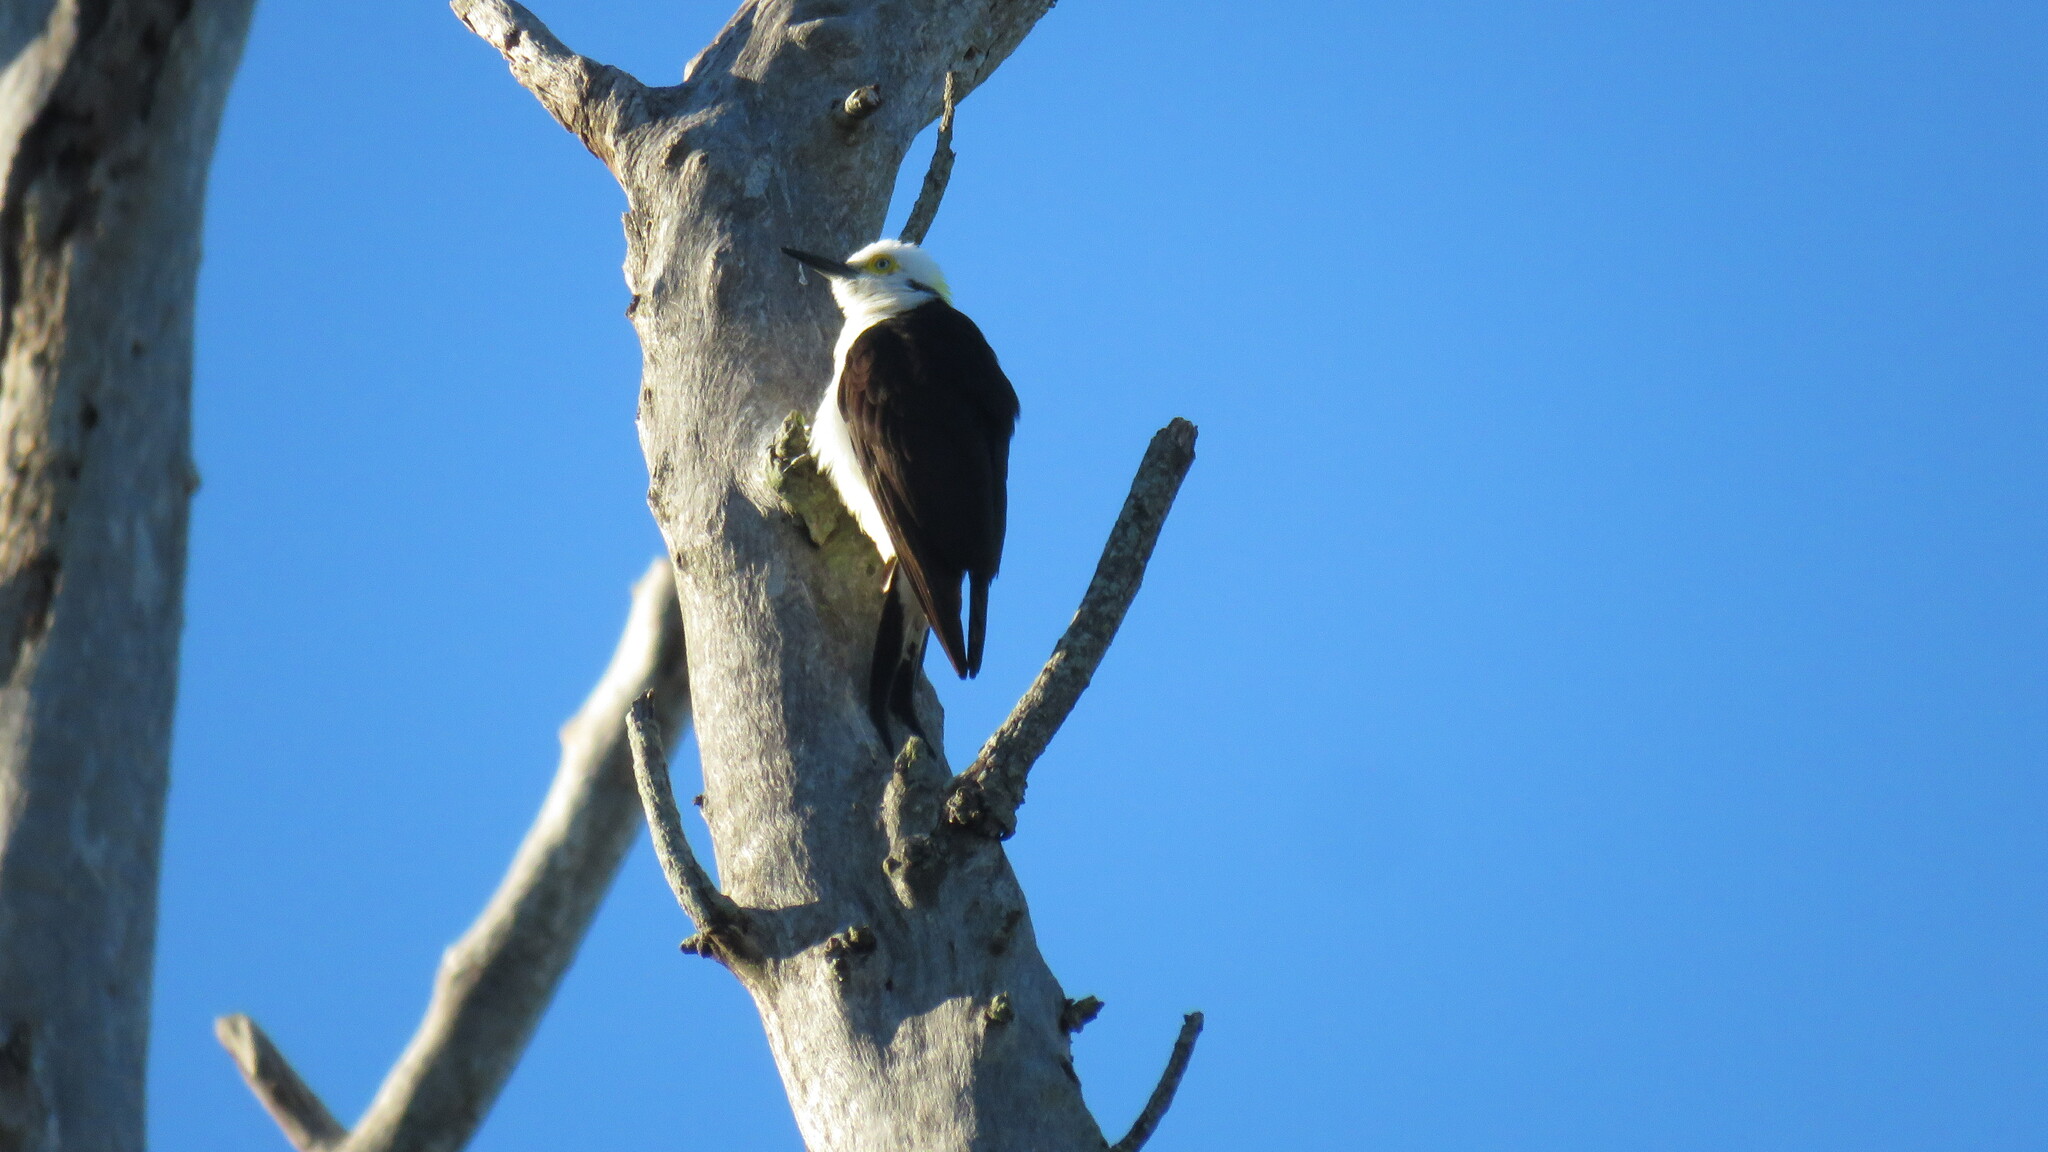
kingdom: Animalia
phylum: Chordata
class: Aves
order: Piciformes
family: Picidae
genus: Melanerpes
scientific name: Melanerpes candidus
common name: White woodpecker
